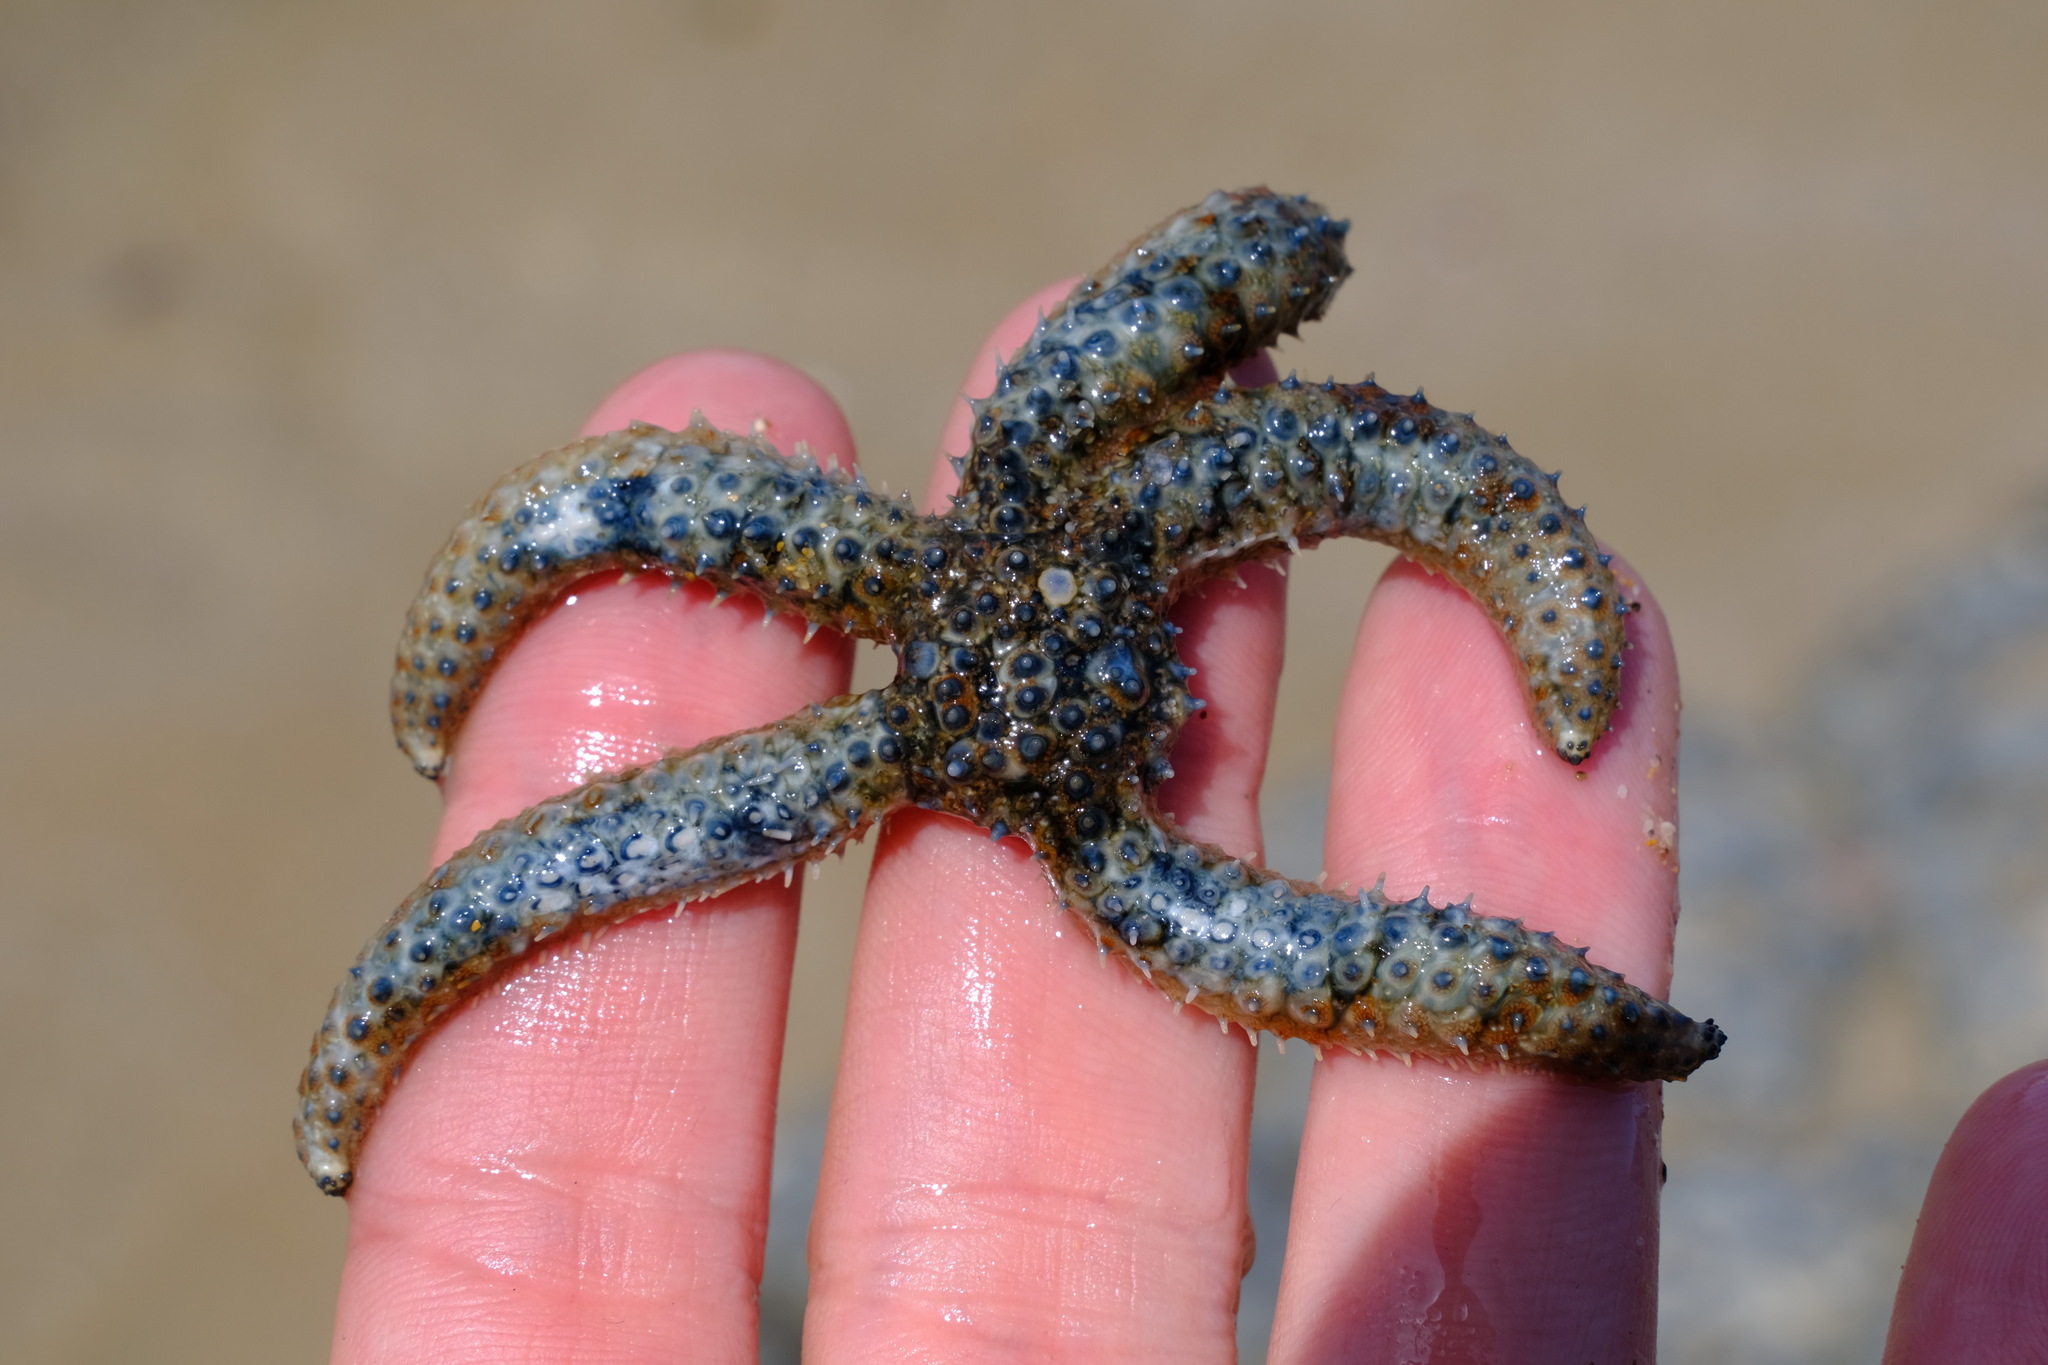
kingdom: Animalia
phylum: Echinodermata
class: Asteroidea
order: Forcipulatida
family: Asteriidae
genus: Coscinasterias
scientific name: Coscinasterias muricata
